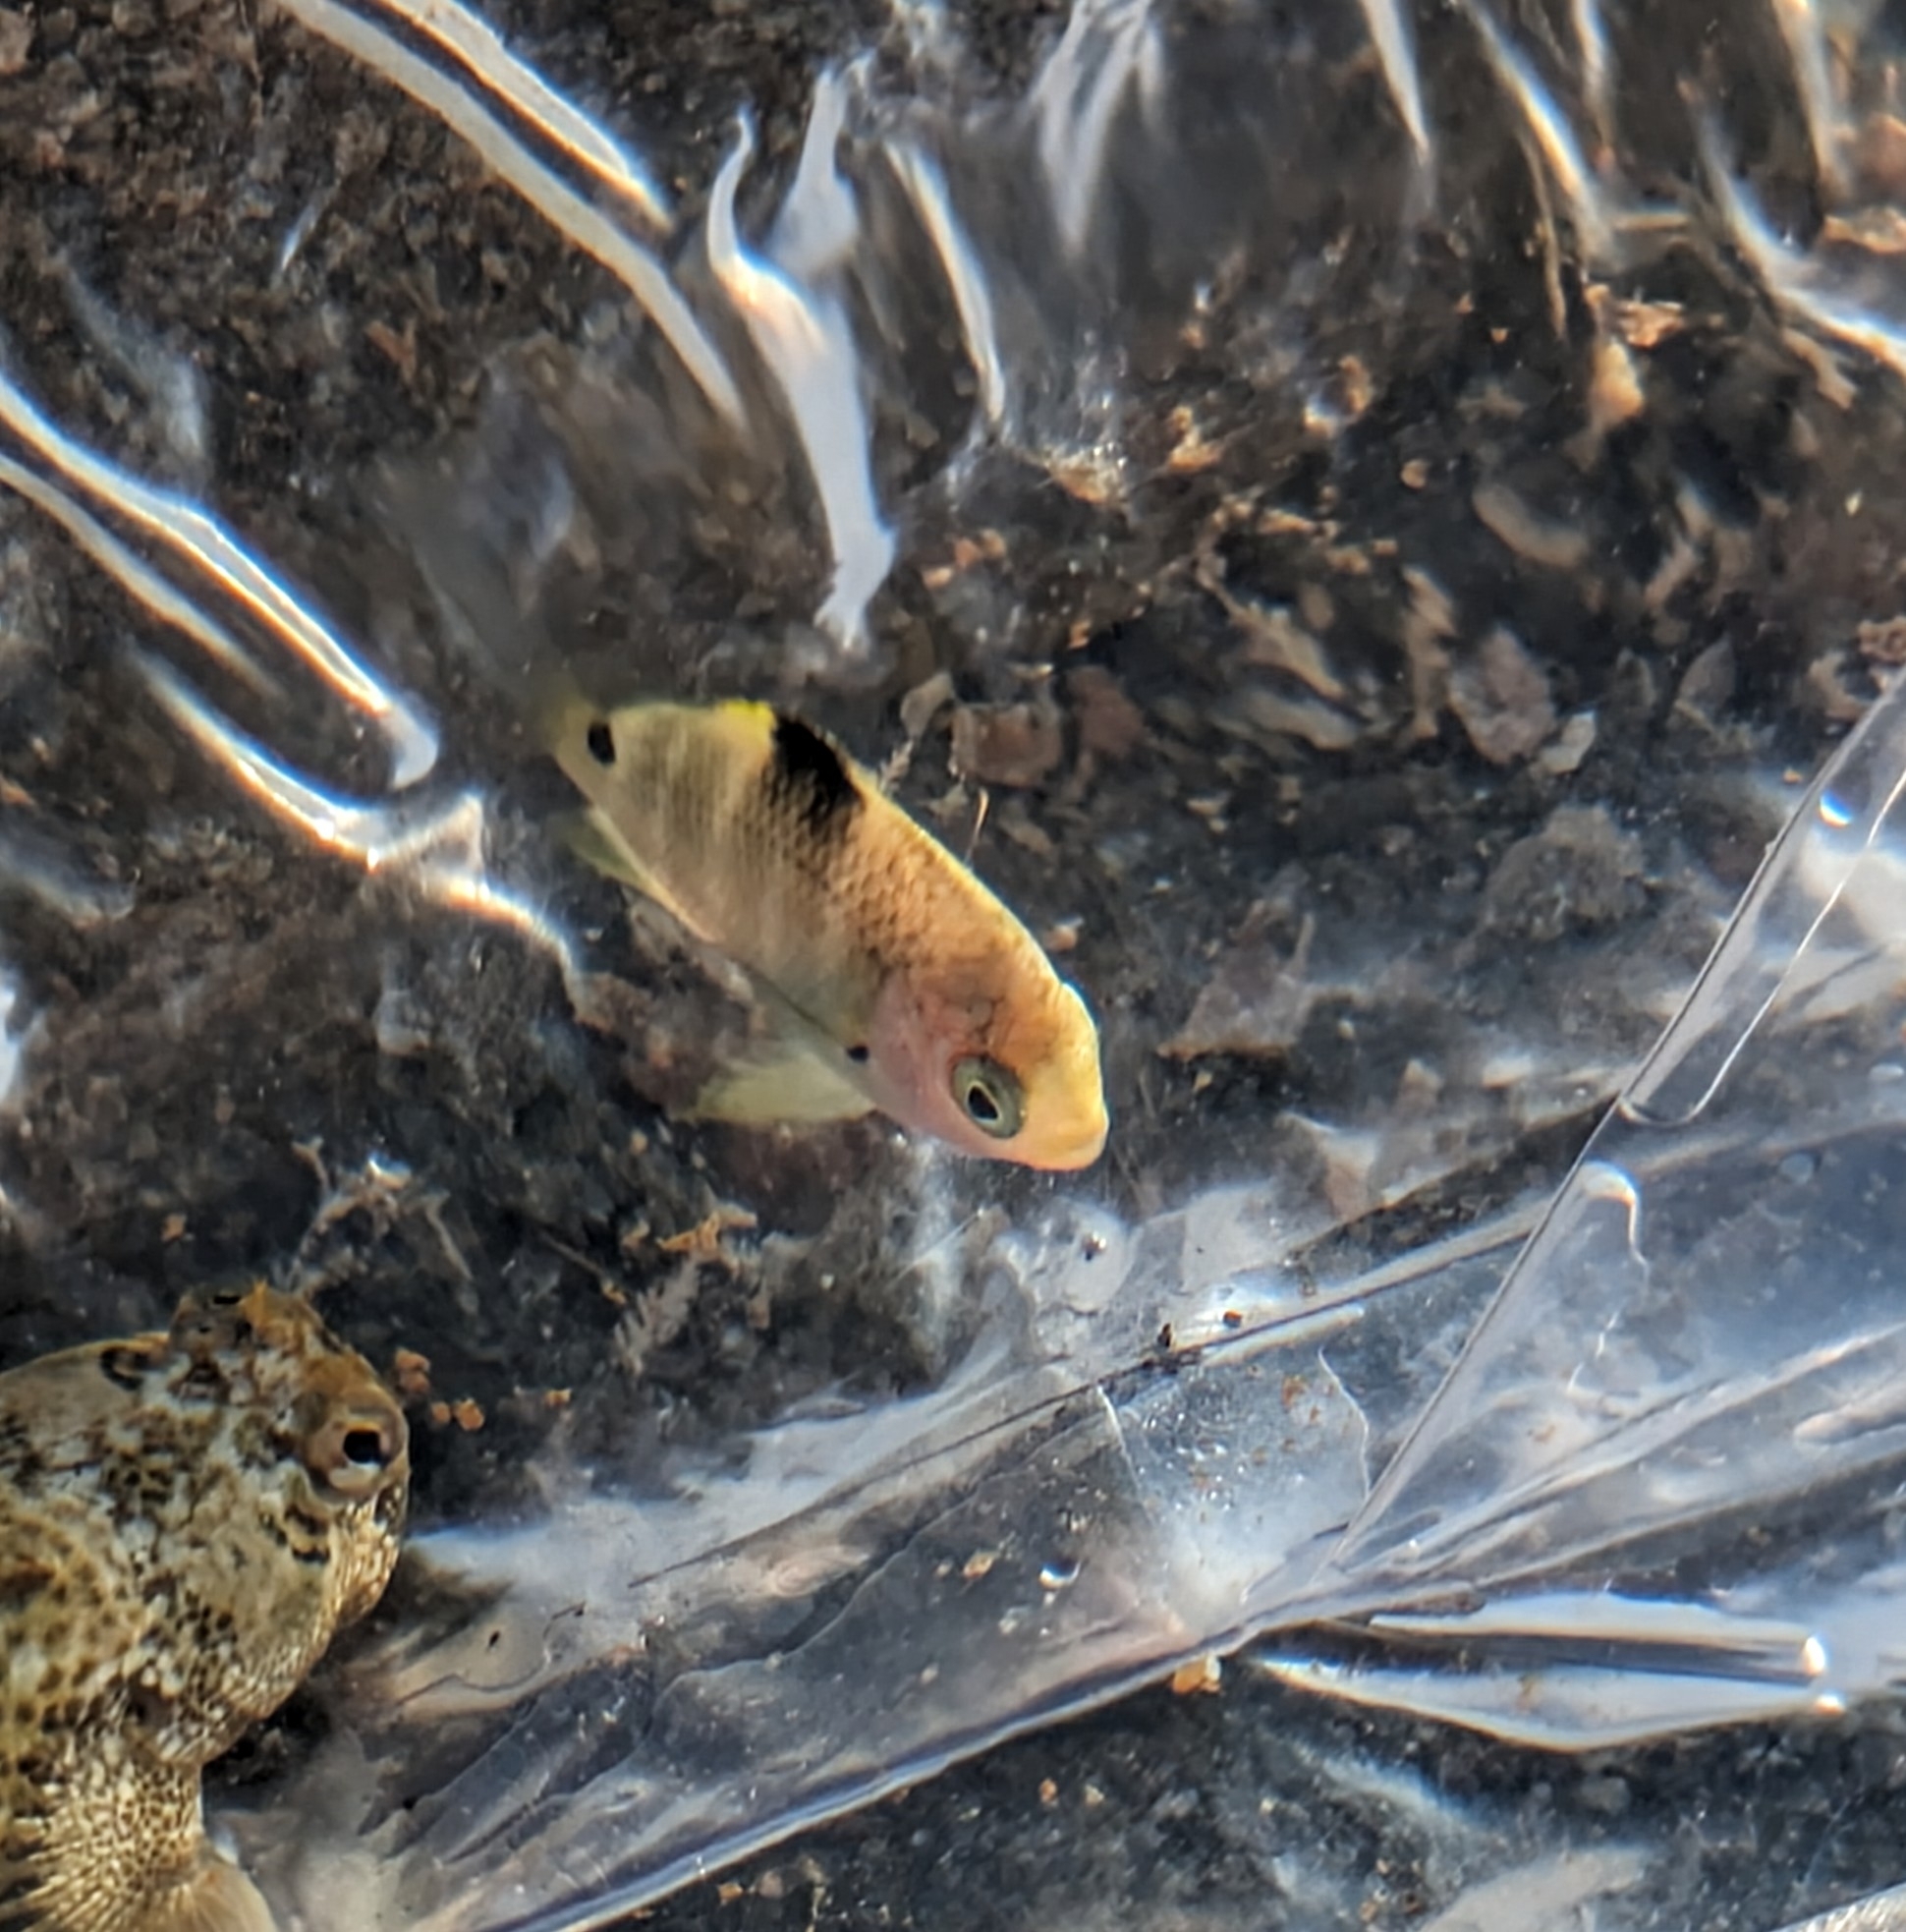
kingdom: Animalia
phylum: Chordata
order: Perciformes
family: Pomacentridae
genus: Abudefduf
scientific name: Abudefduf sordidus
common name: Blackspot sergeant
